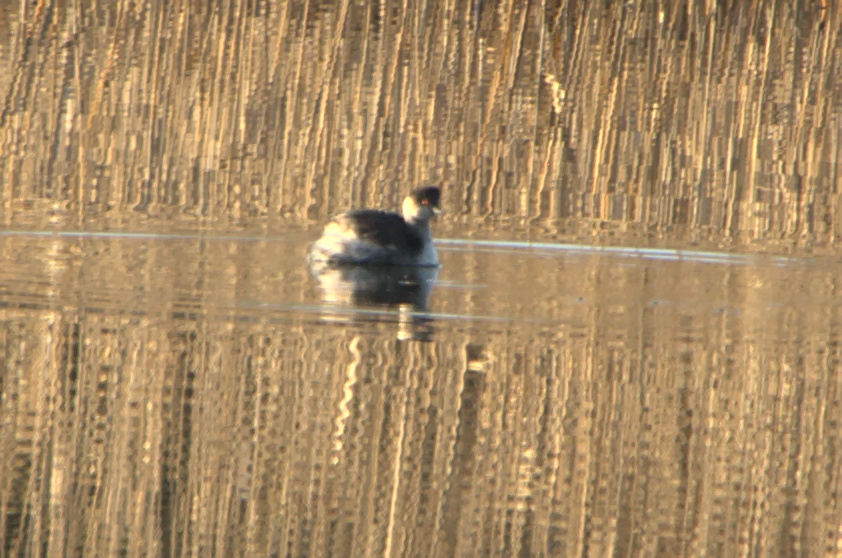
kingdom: Animalia
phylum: Chordata
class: Aves
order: Podicipediformes
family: Podicipedidae
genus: Podiceps
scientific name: Podiceps nigricollis
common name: Black-necked grebe
